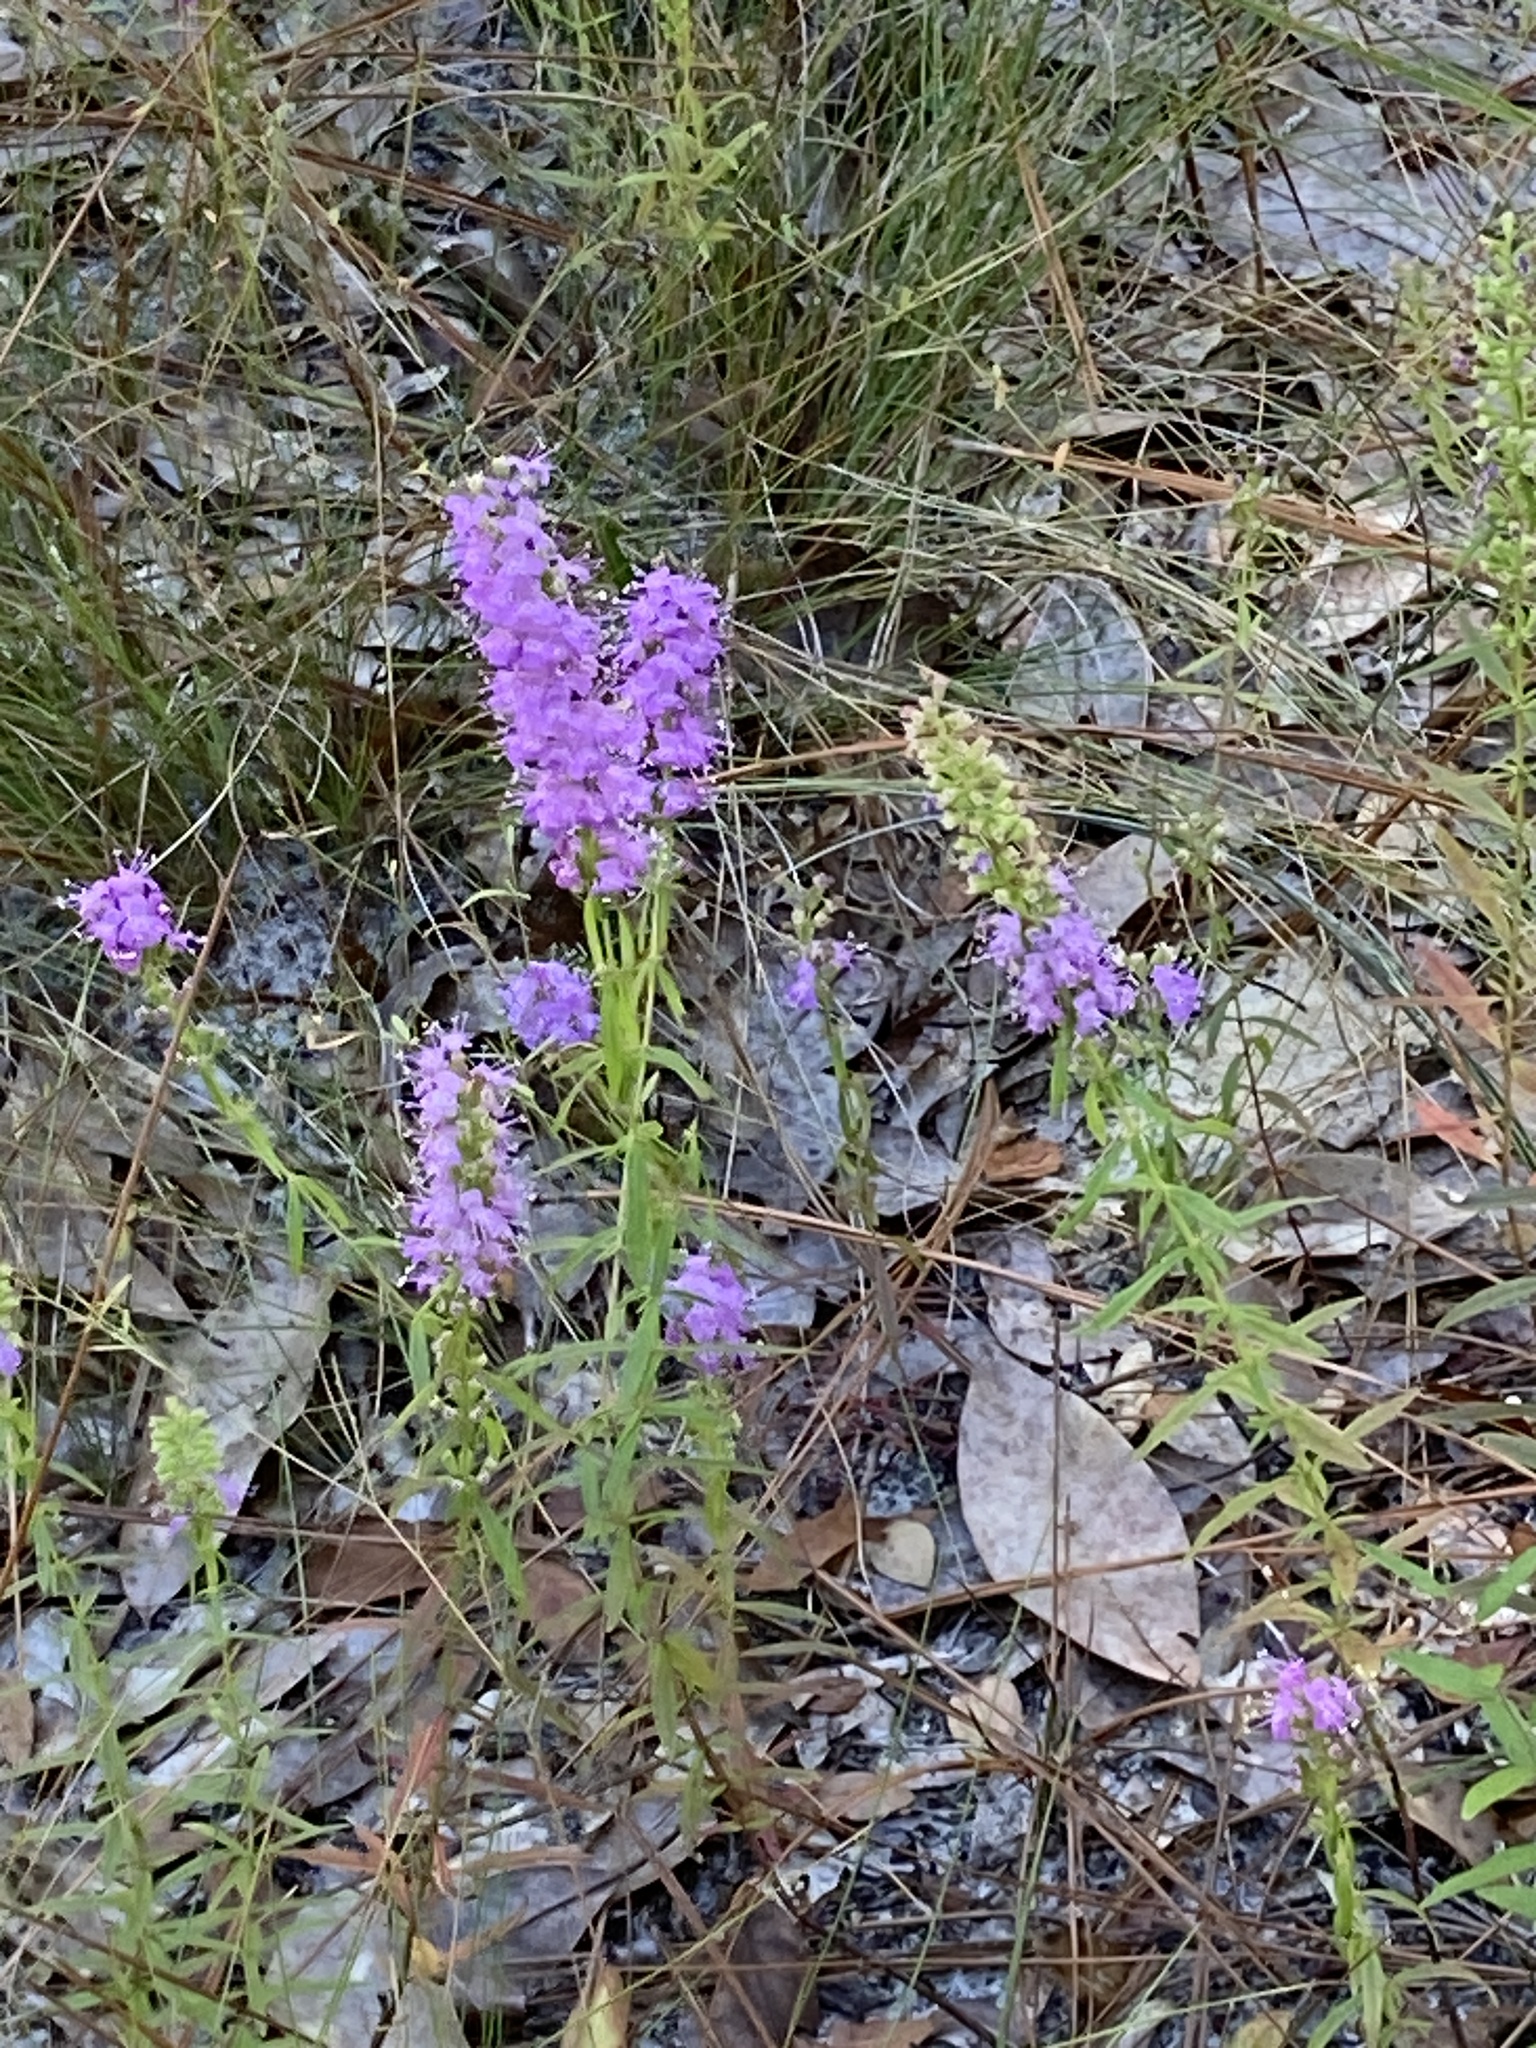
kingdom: Plantae
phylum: Tracheophyta
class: Magnoliopsida
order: Lamiales
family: Lamiaceae
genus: Dicerandra
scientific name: Dicerandra densiflora
